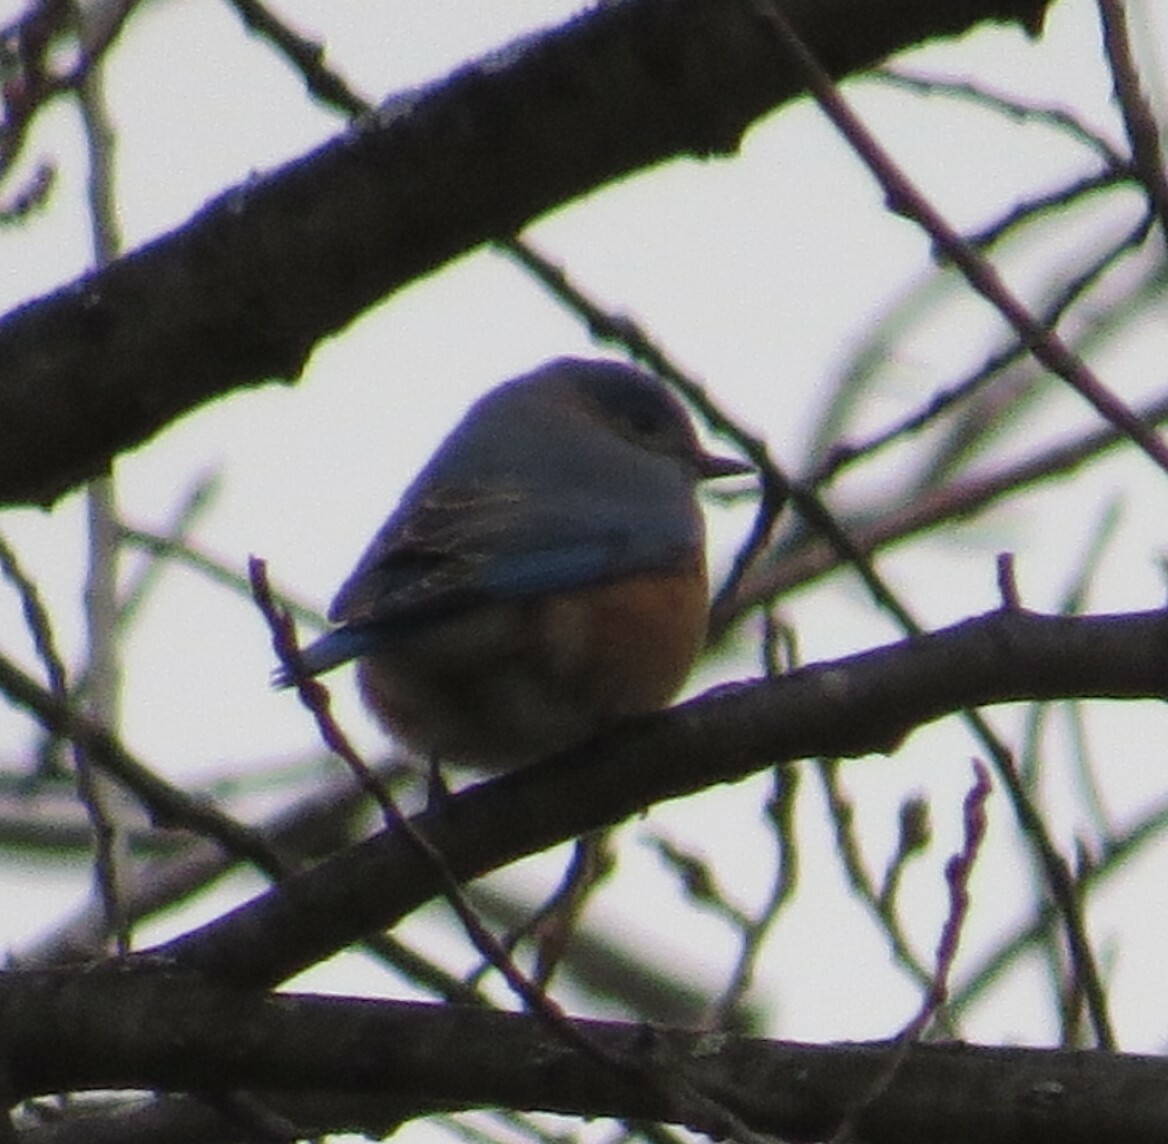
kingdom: Animalia
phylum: Chordata
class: Aves
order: Passeriformes
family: Turdidae
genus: Sialia
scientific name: Sialia sialis
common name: Eastern bluebird
